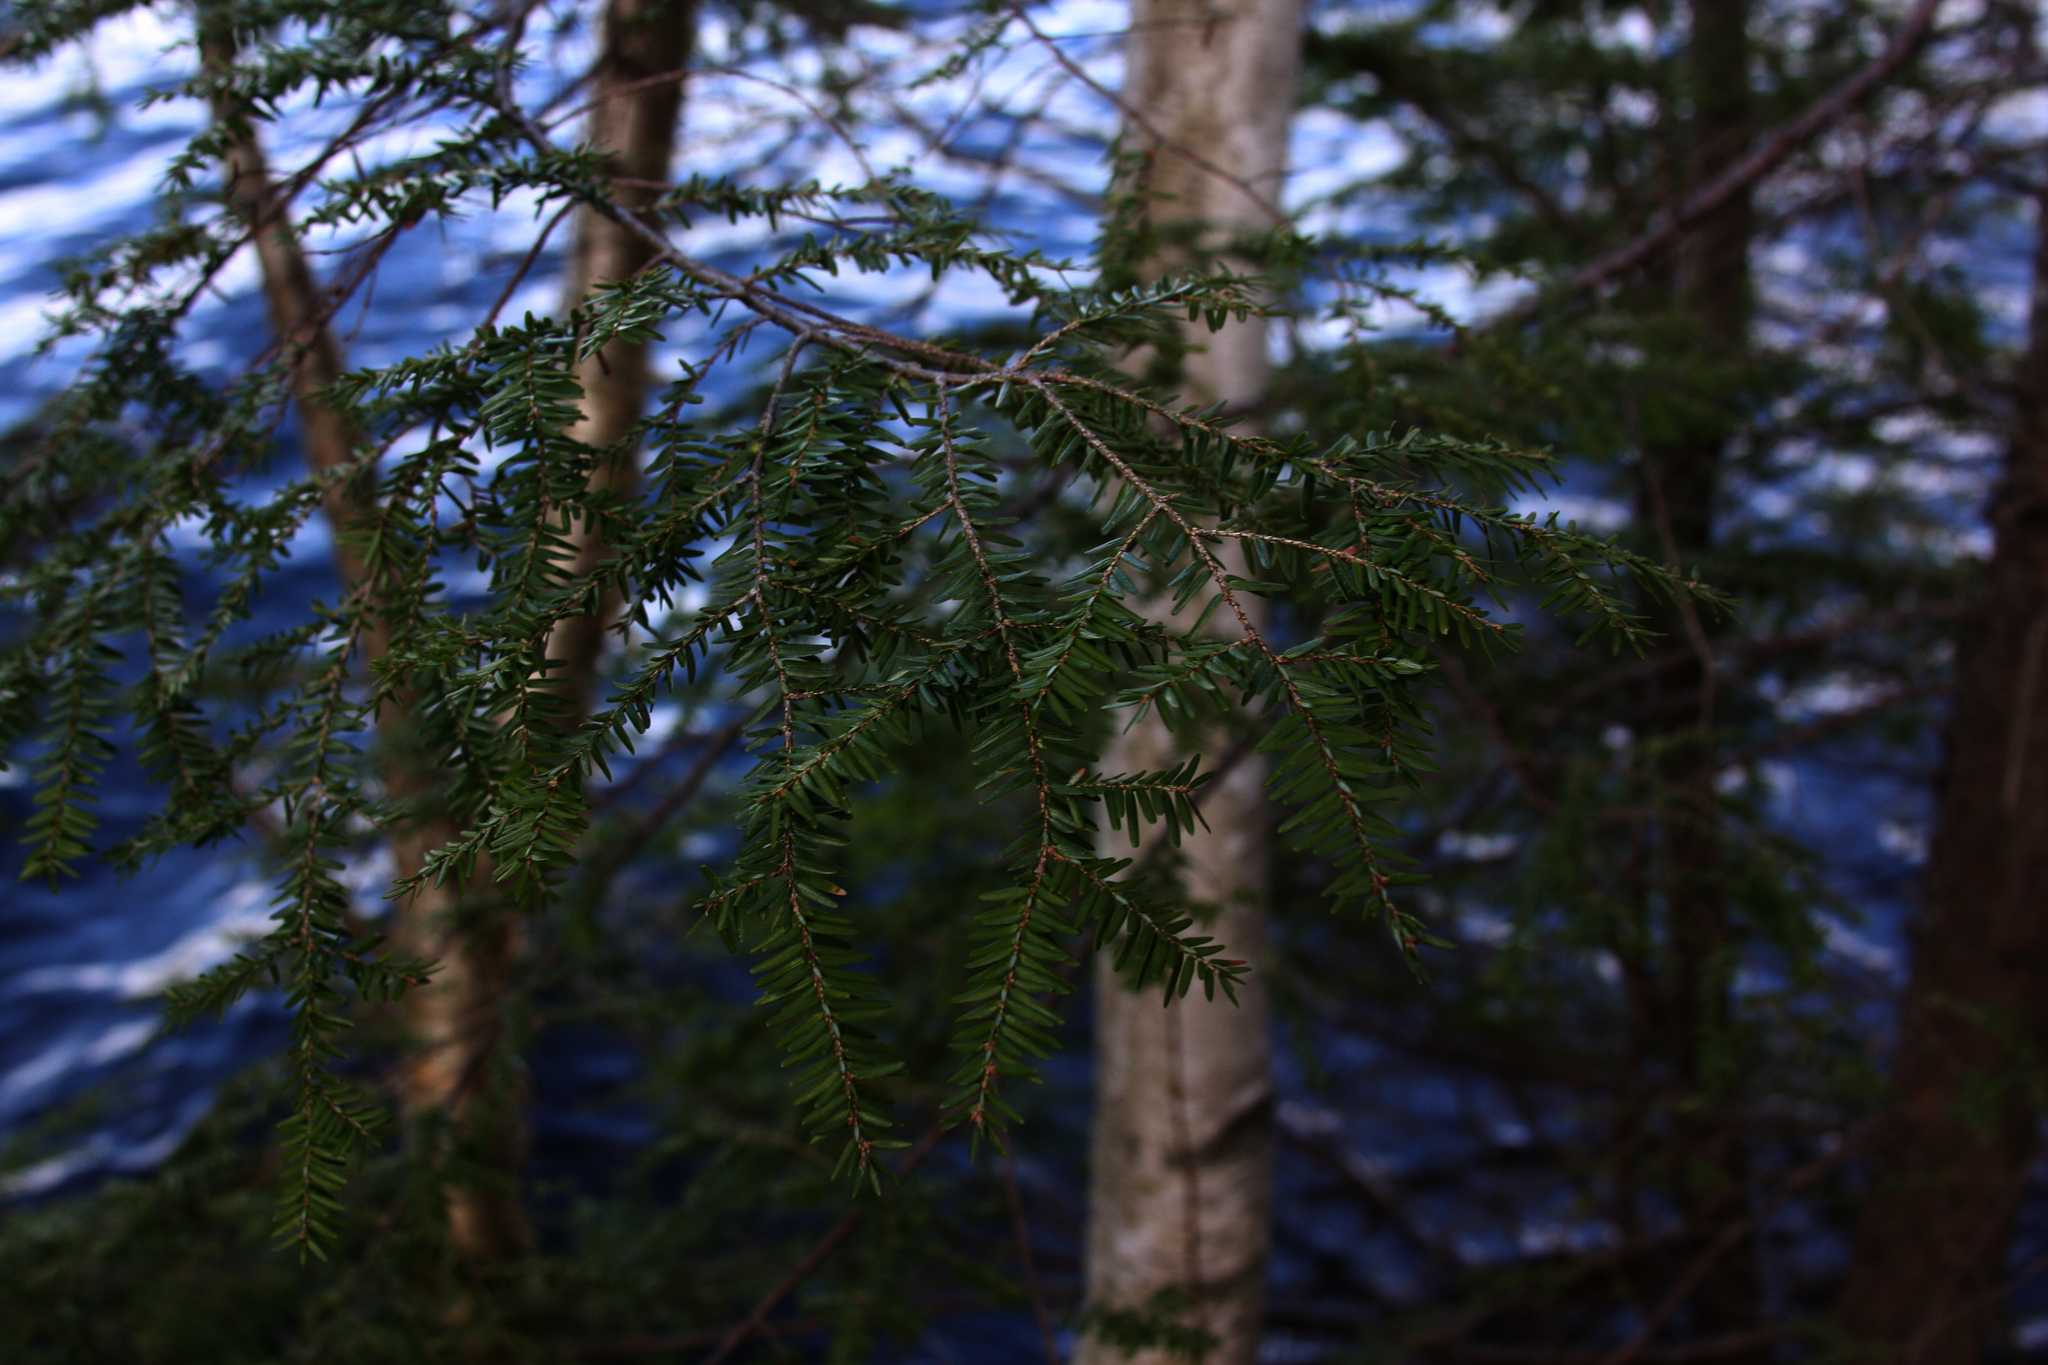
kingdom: Plantae
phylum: Tracheophyta
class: Pinopsida
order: Pinales
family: Pinaceae
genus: Tsuga
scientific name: Tsuga canadensis
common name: Eastern hemlock
